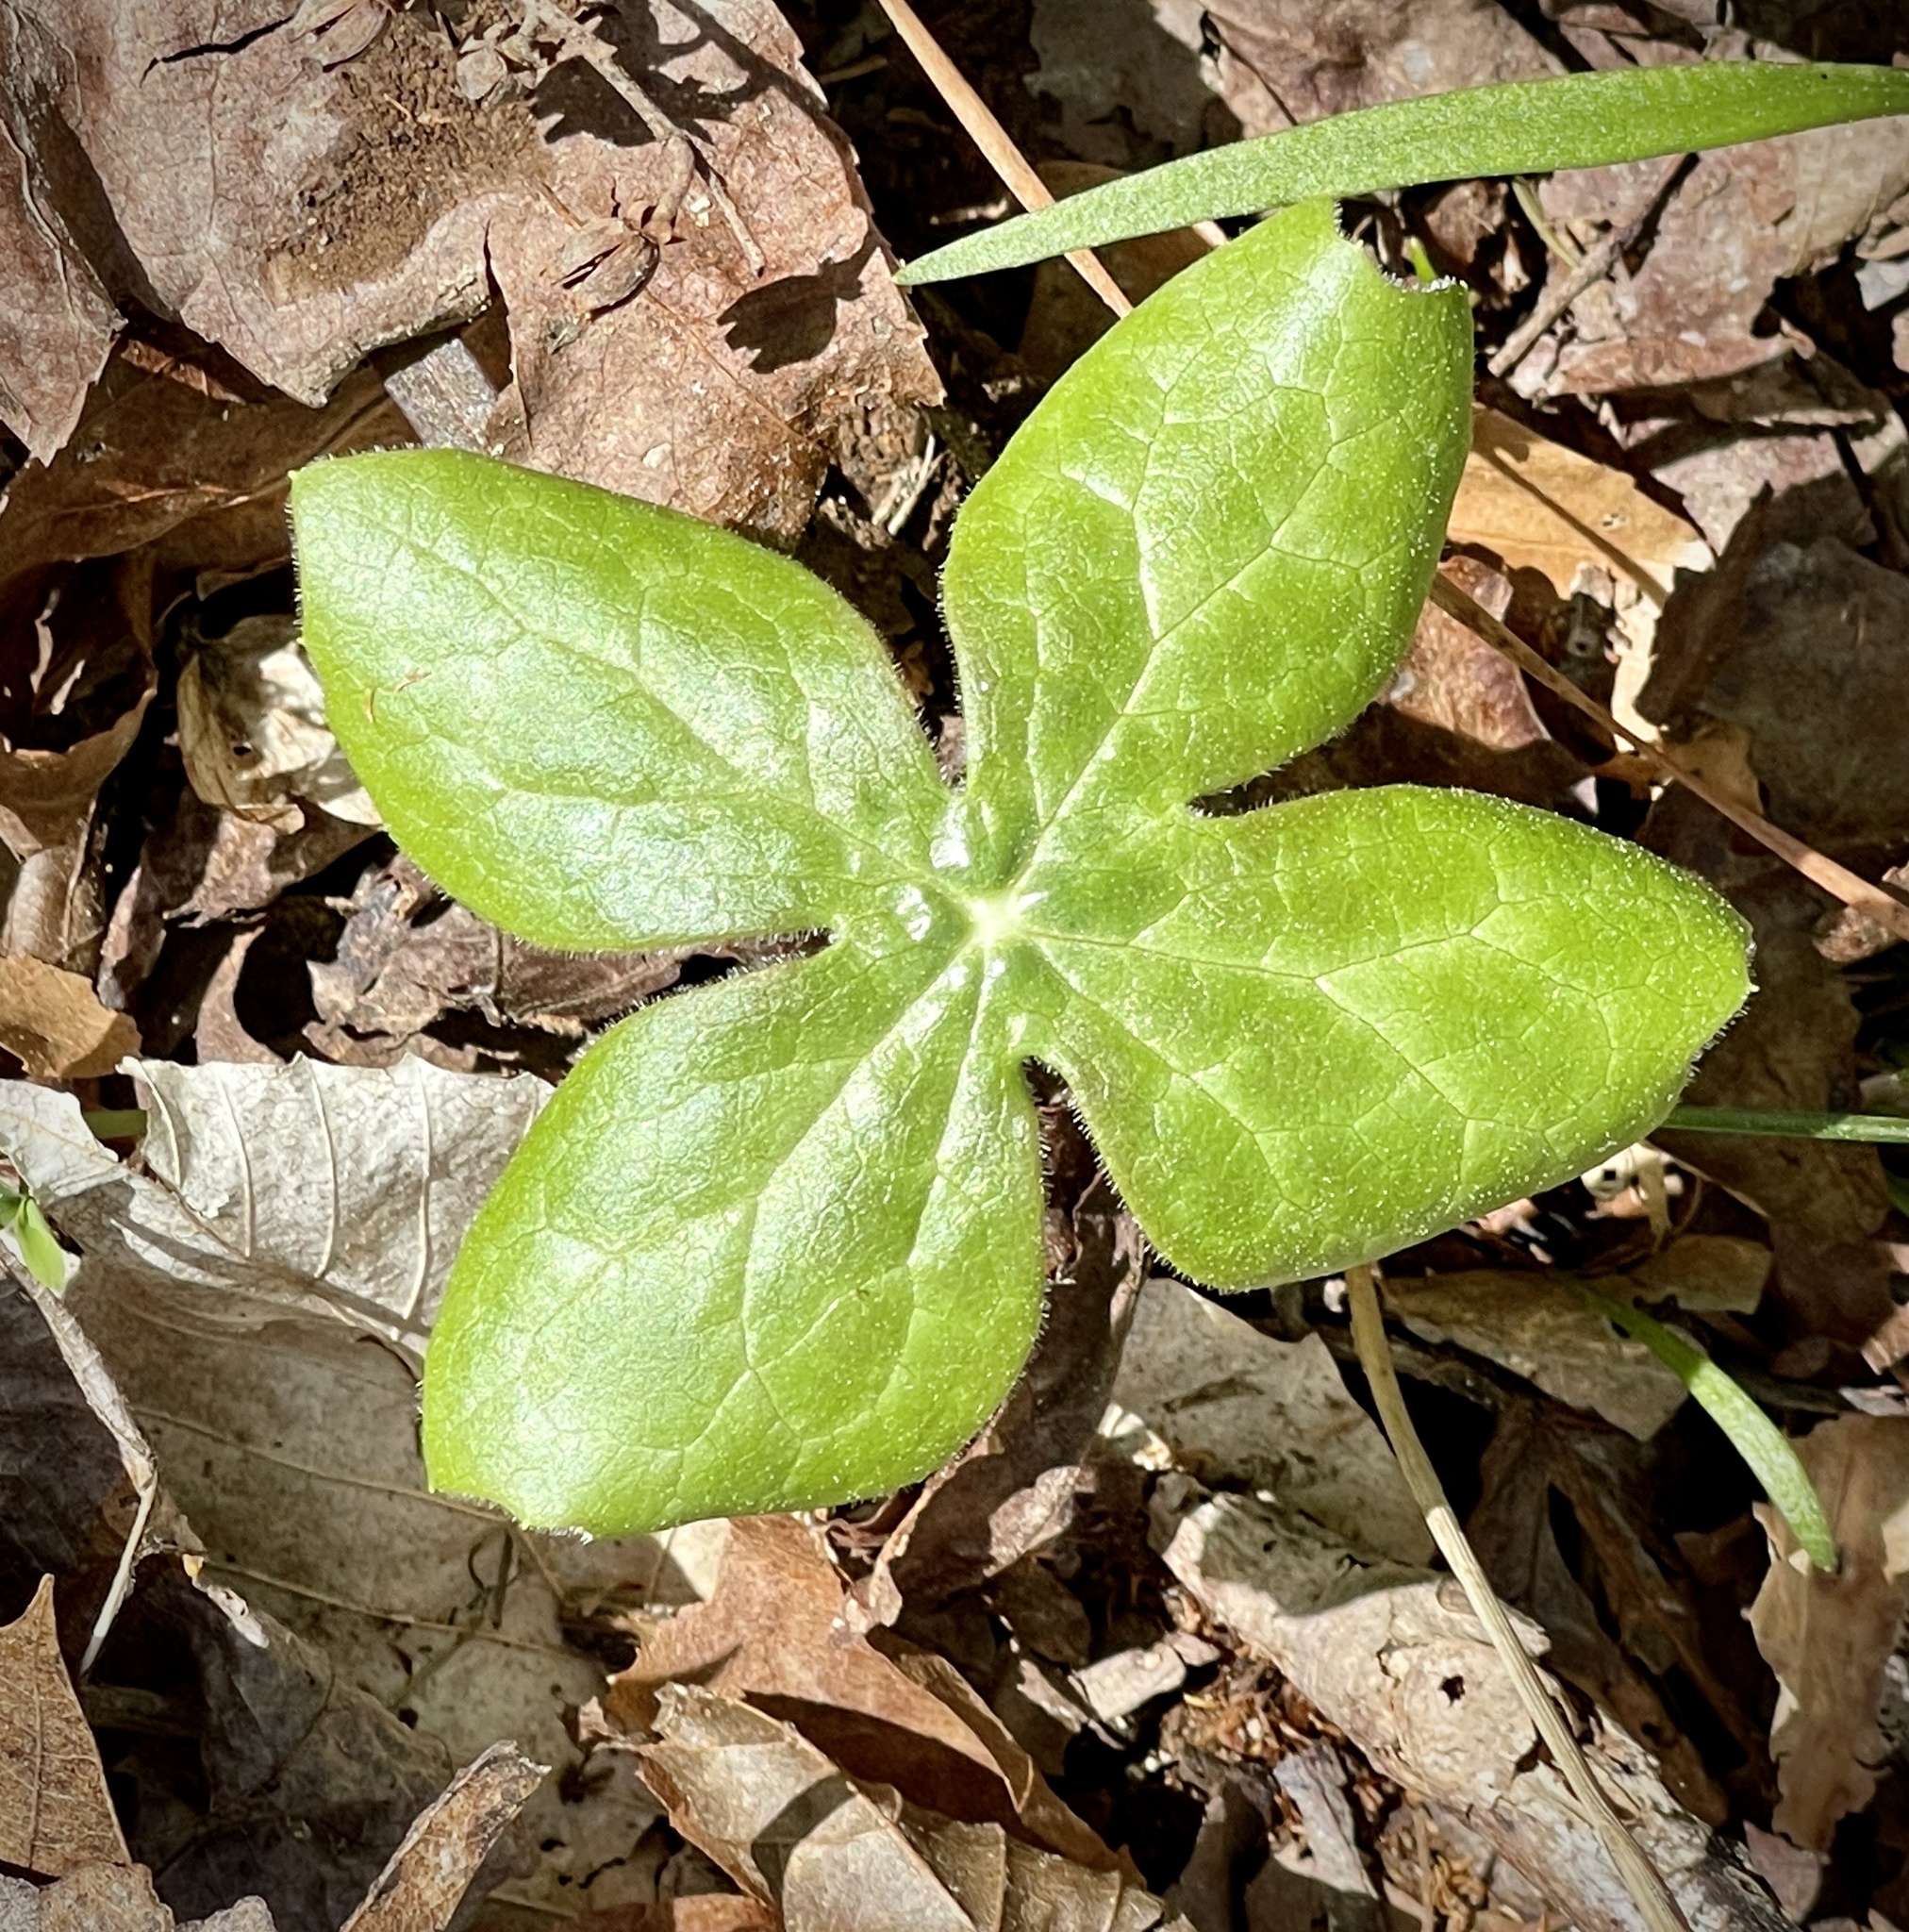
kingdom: Plantae
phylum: Tracheophyta
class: Magnoliopsida
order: Ranunculales
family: Berberidaceae
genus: Podophyllum
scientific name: Podophyllum peltatum
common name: Wild mandrake
